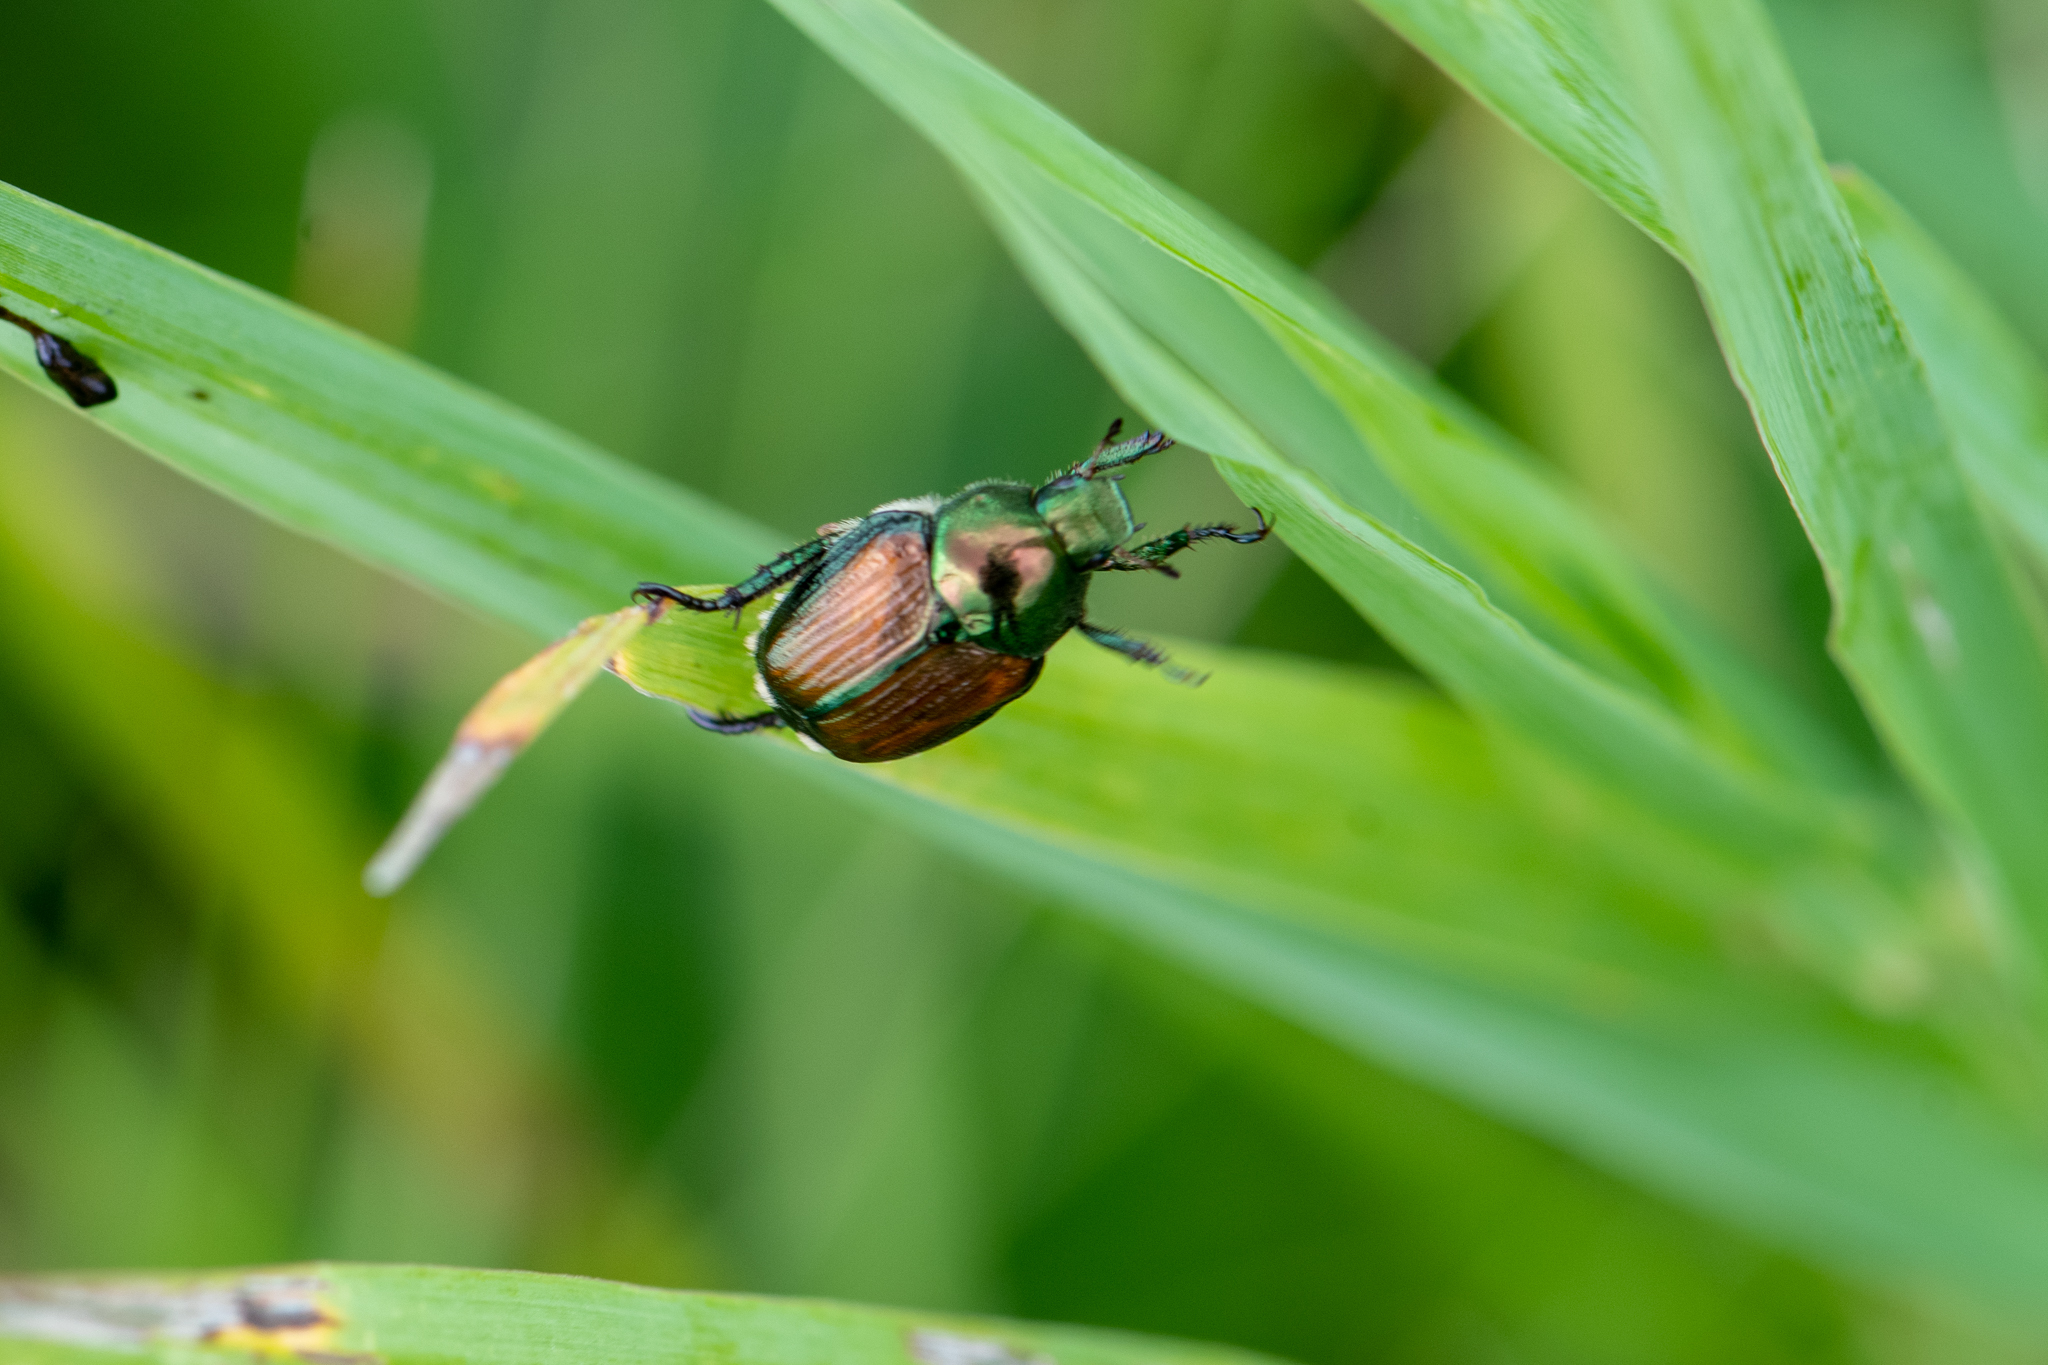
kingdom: Animalia
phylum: Arthropoda
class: Insecta
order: Coleoptera
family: Scarabaeidae
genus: Popillia
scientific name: Popillia japonica
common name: Japanese beetle
